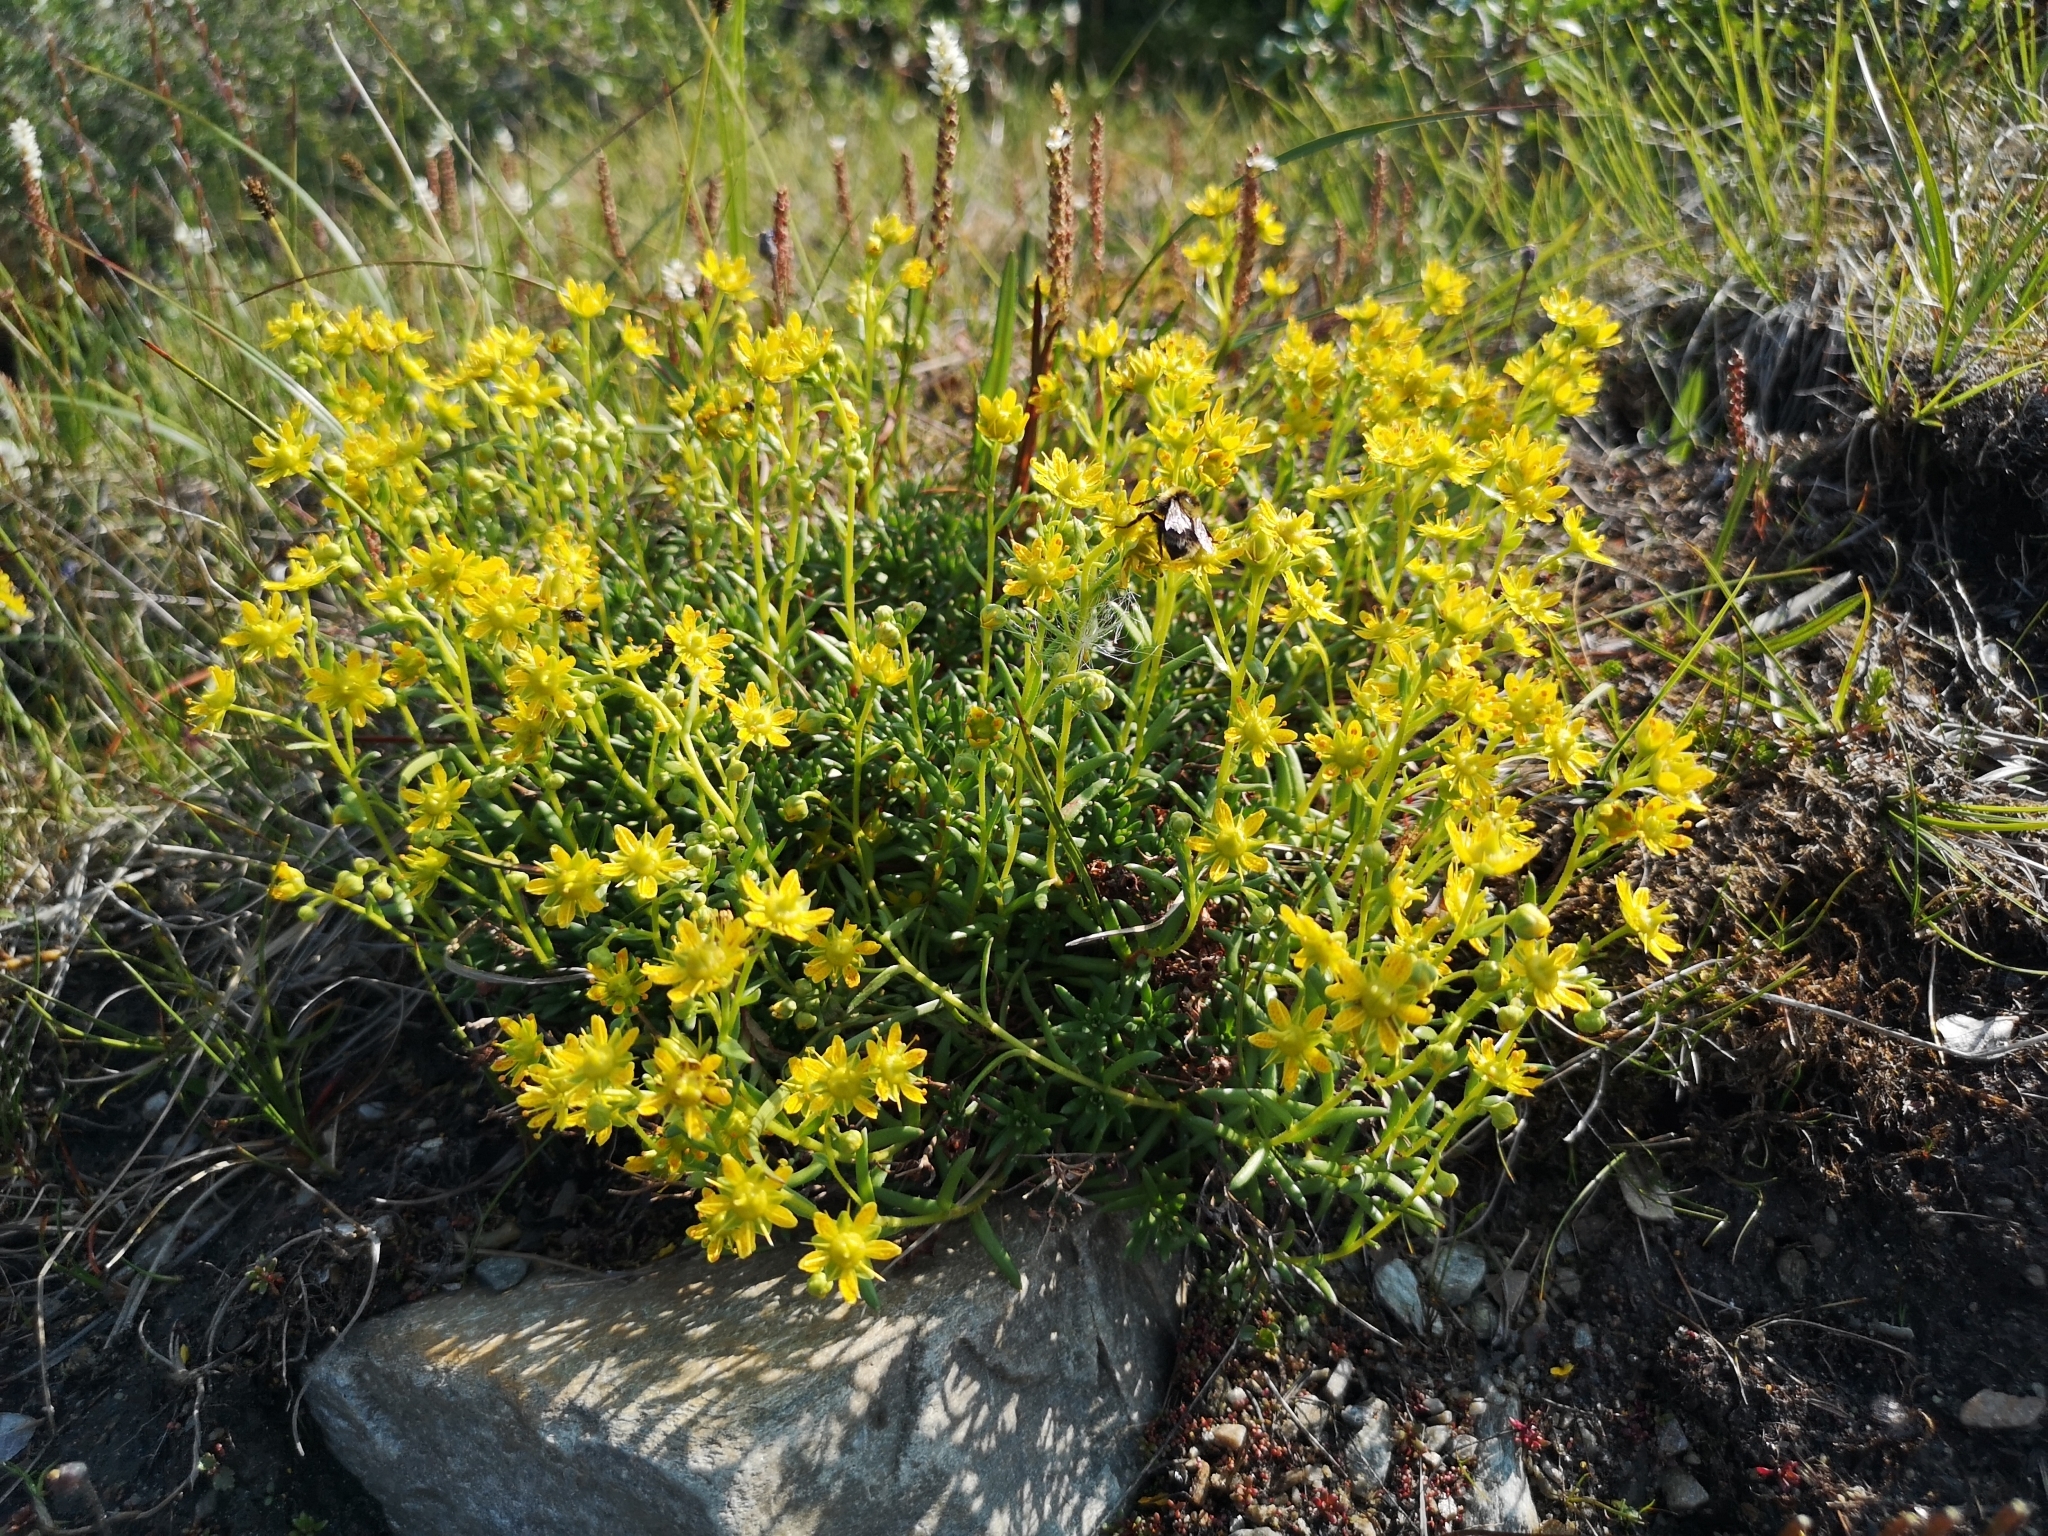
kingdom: Plantae
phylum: Tracheophyta
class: Magnoliopsida
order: Saxifragales
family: Saxifragaceae
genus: Saxifraga
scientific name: Saxifraga aizoides
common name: Yellow mountain saxifrage
